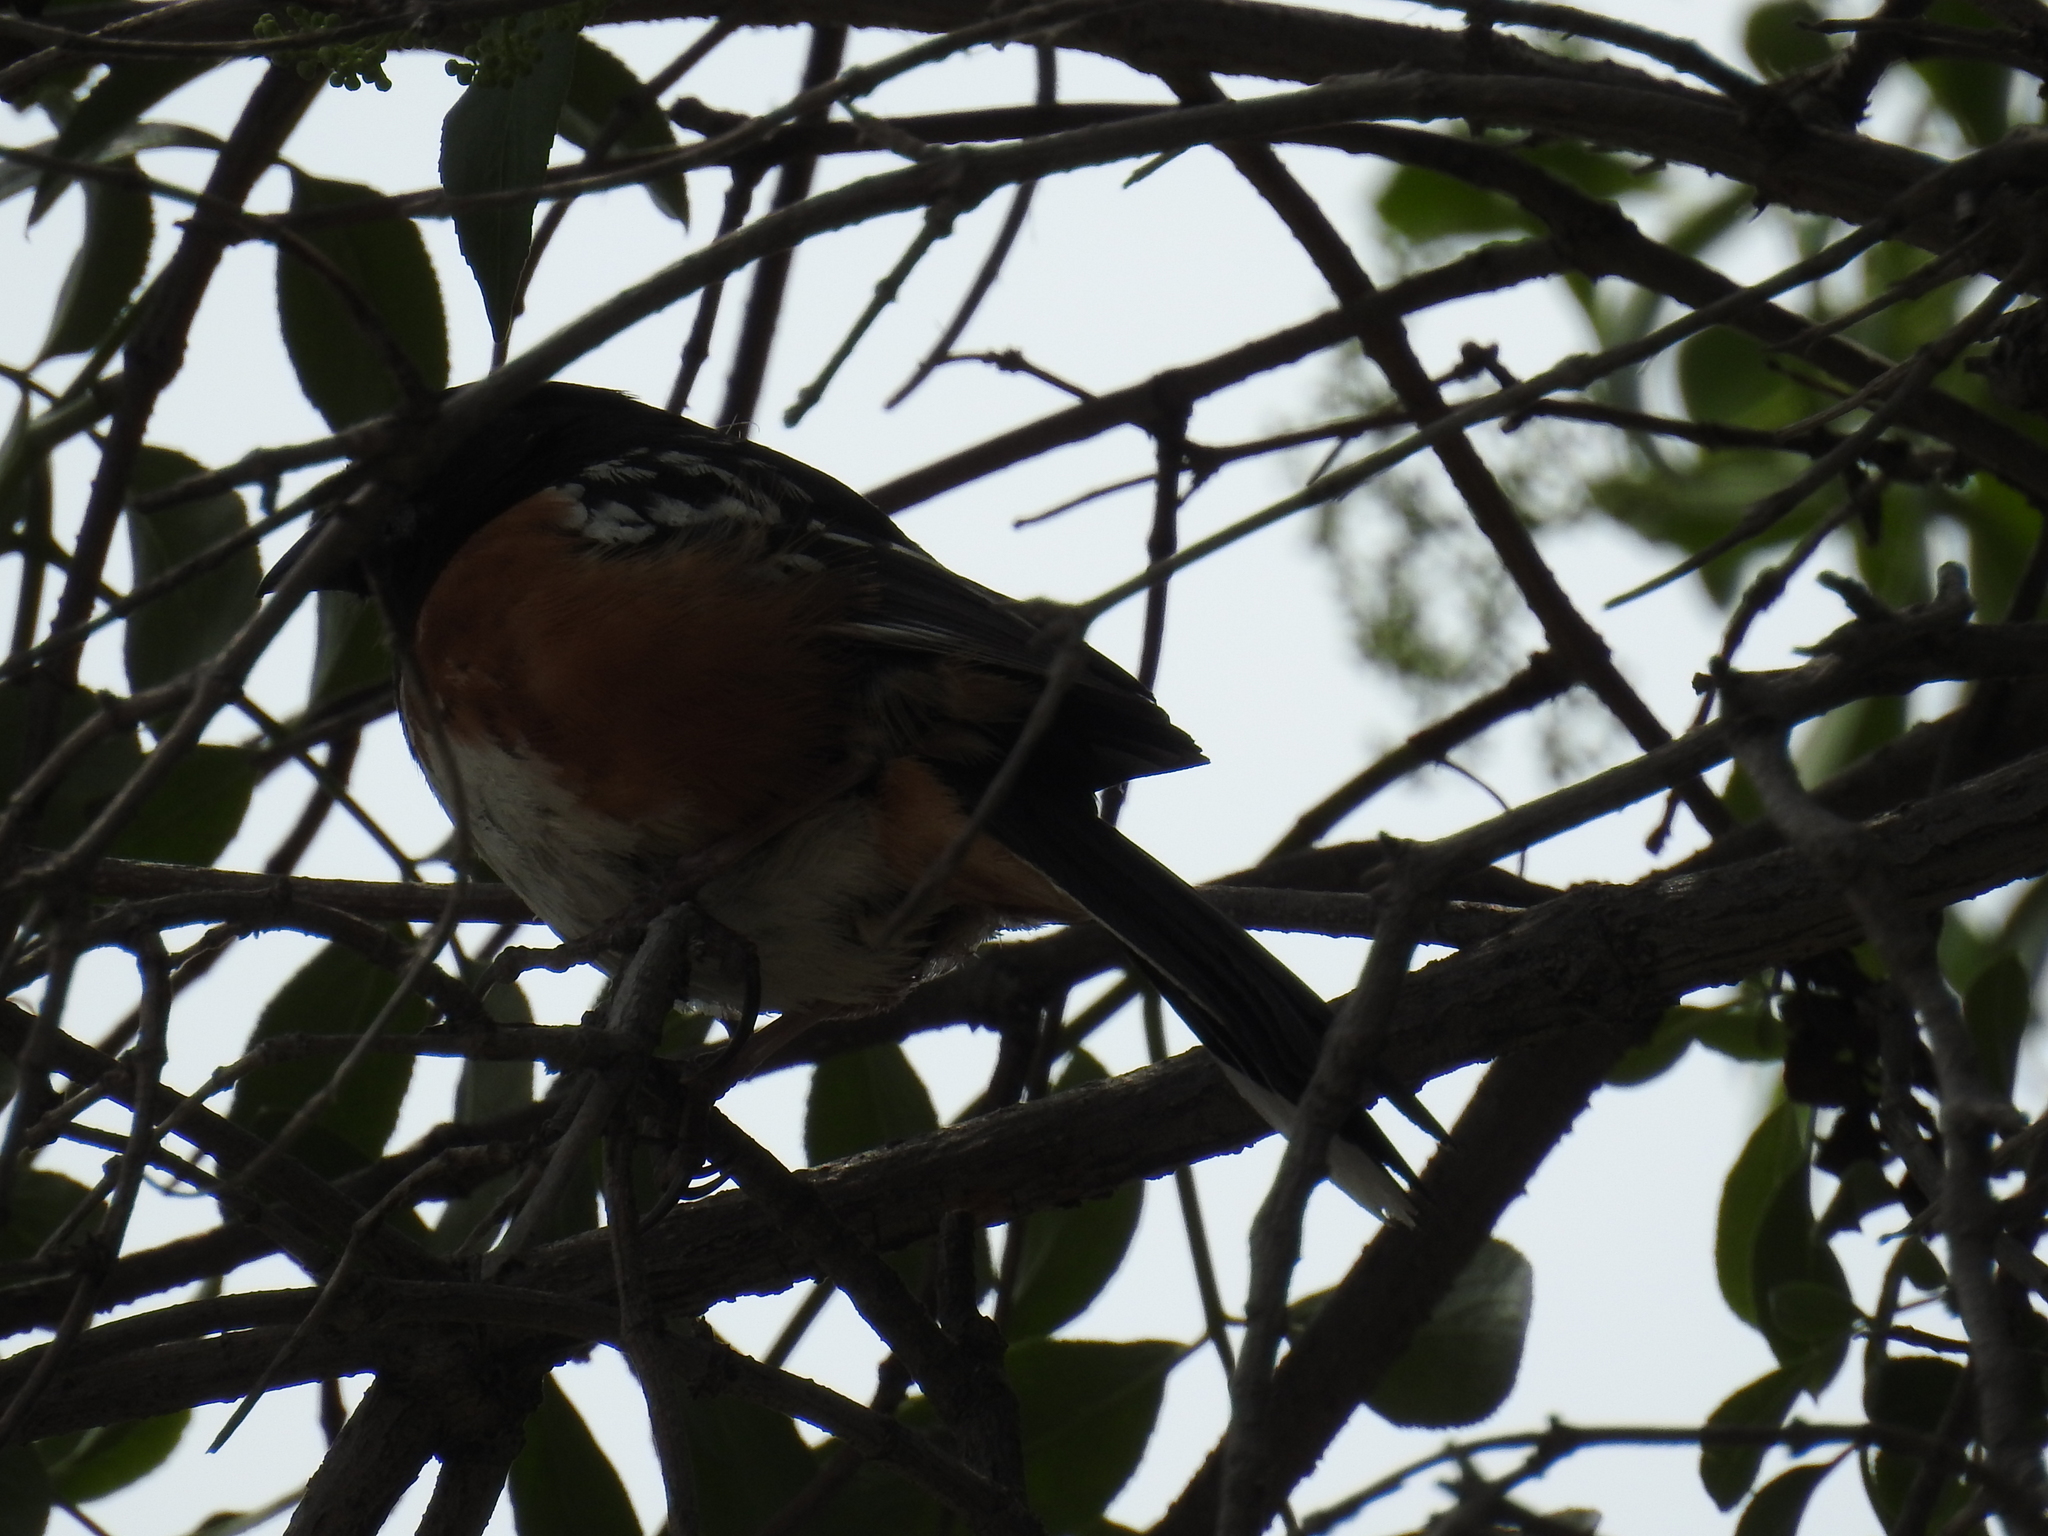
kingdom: Animalia
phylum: Chordata
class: Aves
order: Passeriformes
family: Passerellidae
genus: Pipilo
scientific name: Pipilo maculatus
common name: Spotted towhee
